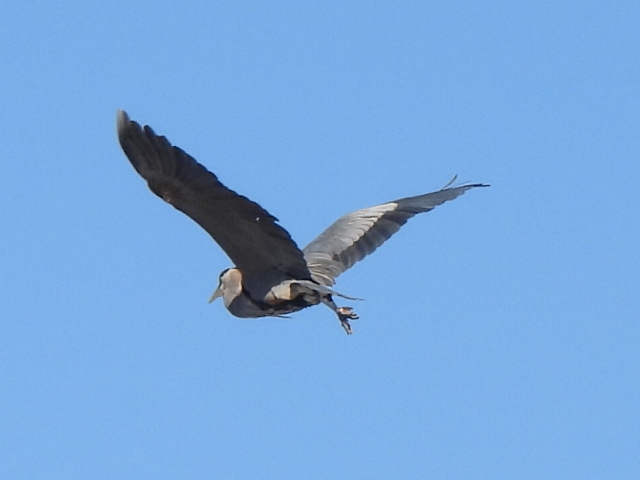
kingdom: Animalia
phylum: Chordata
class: Aves
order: Pelecaniformes
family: Ardeidae
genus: Ardea
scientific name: Ardea herodias
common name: Great blue heron
